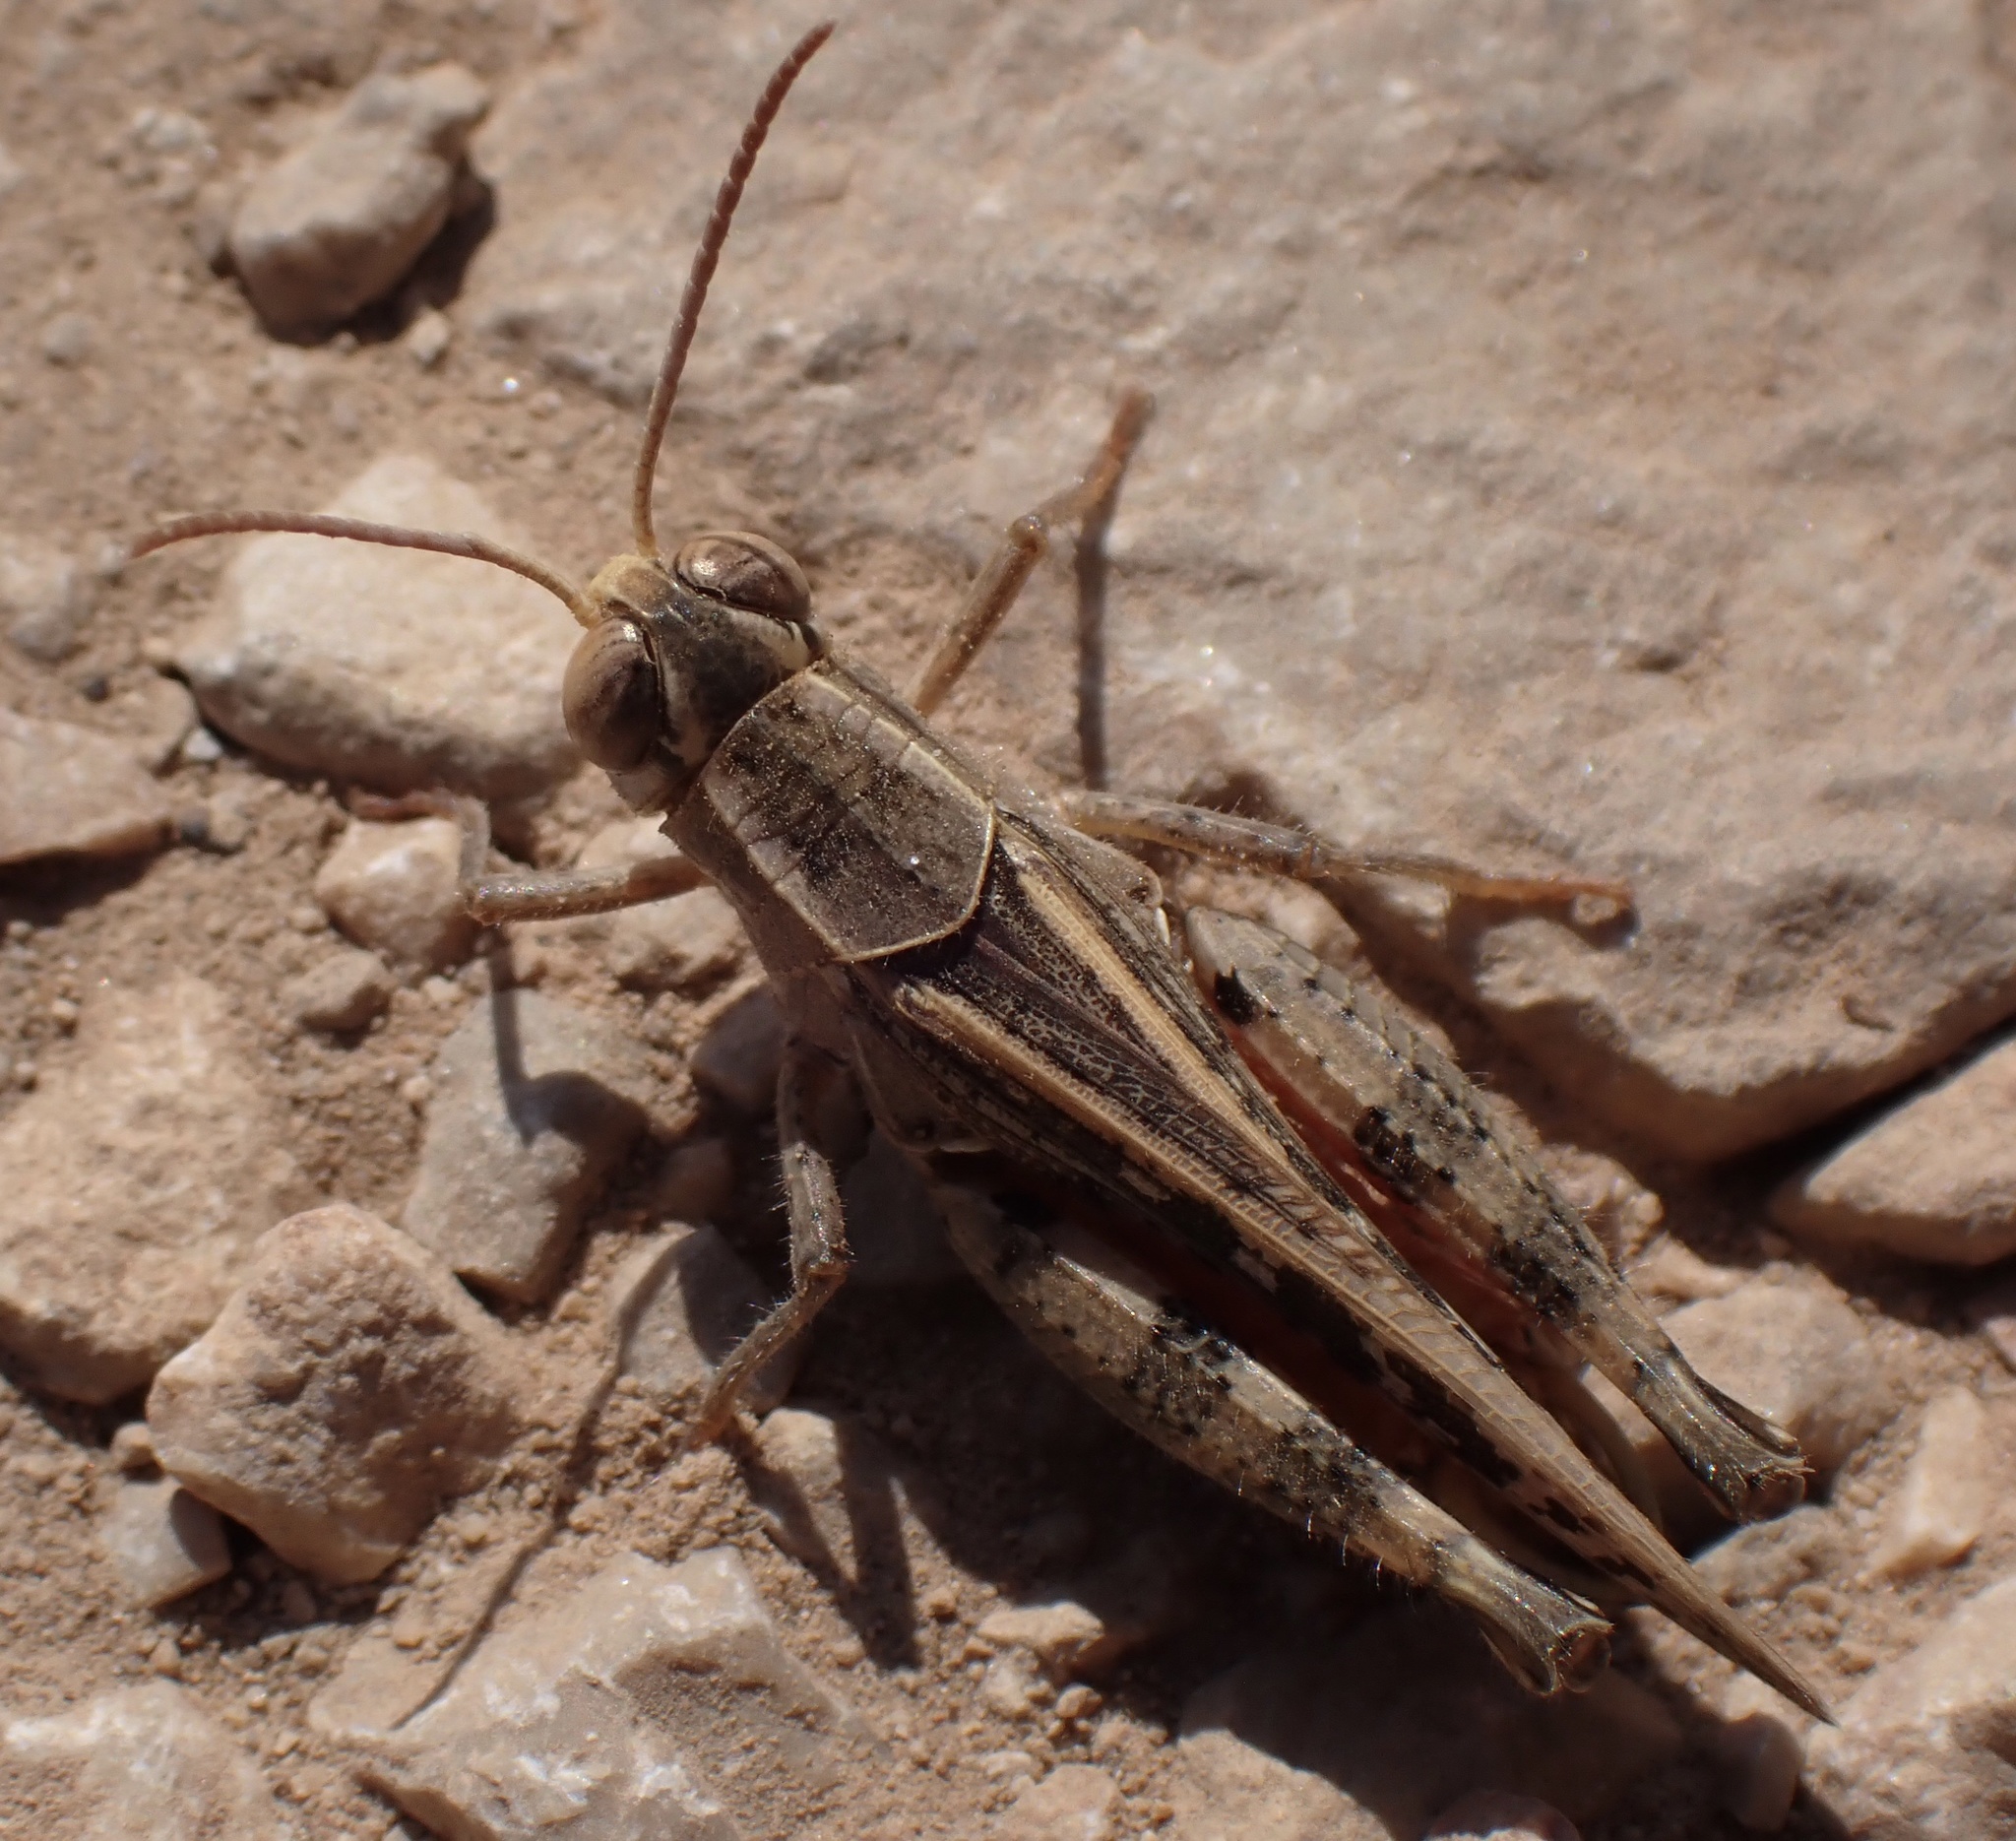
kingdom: Animalia
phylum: Arthropoda
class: Insecta
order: Orthoptera
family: Acrididae
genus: Calliptamus
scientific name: Calliptamus italicus
